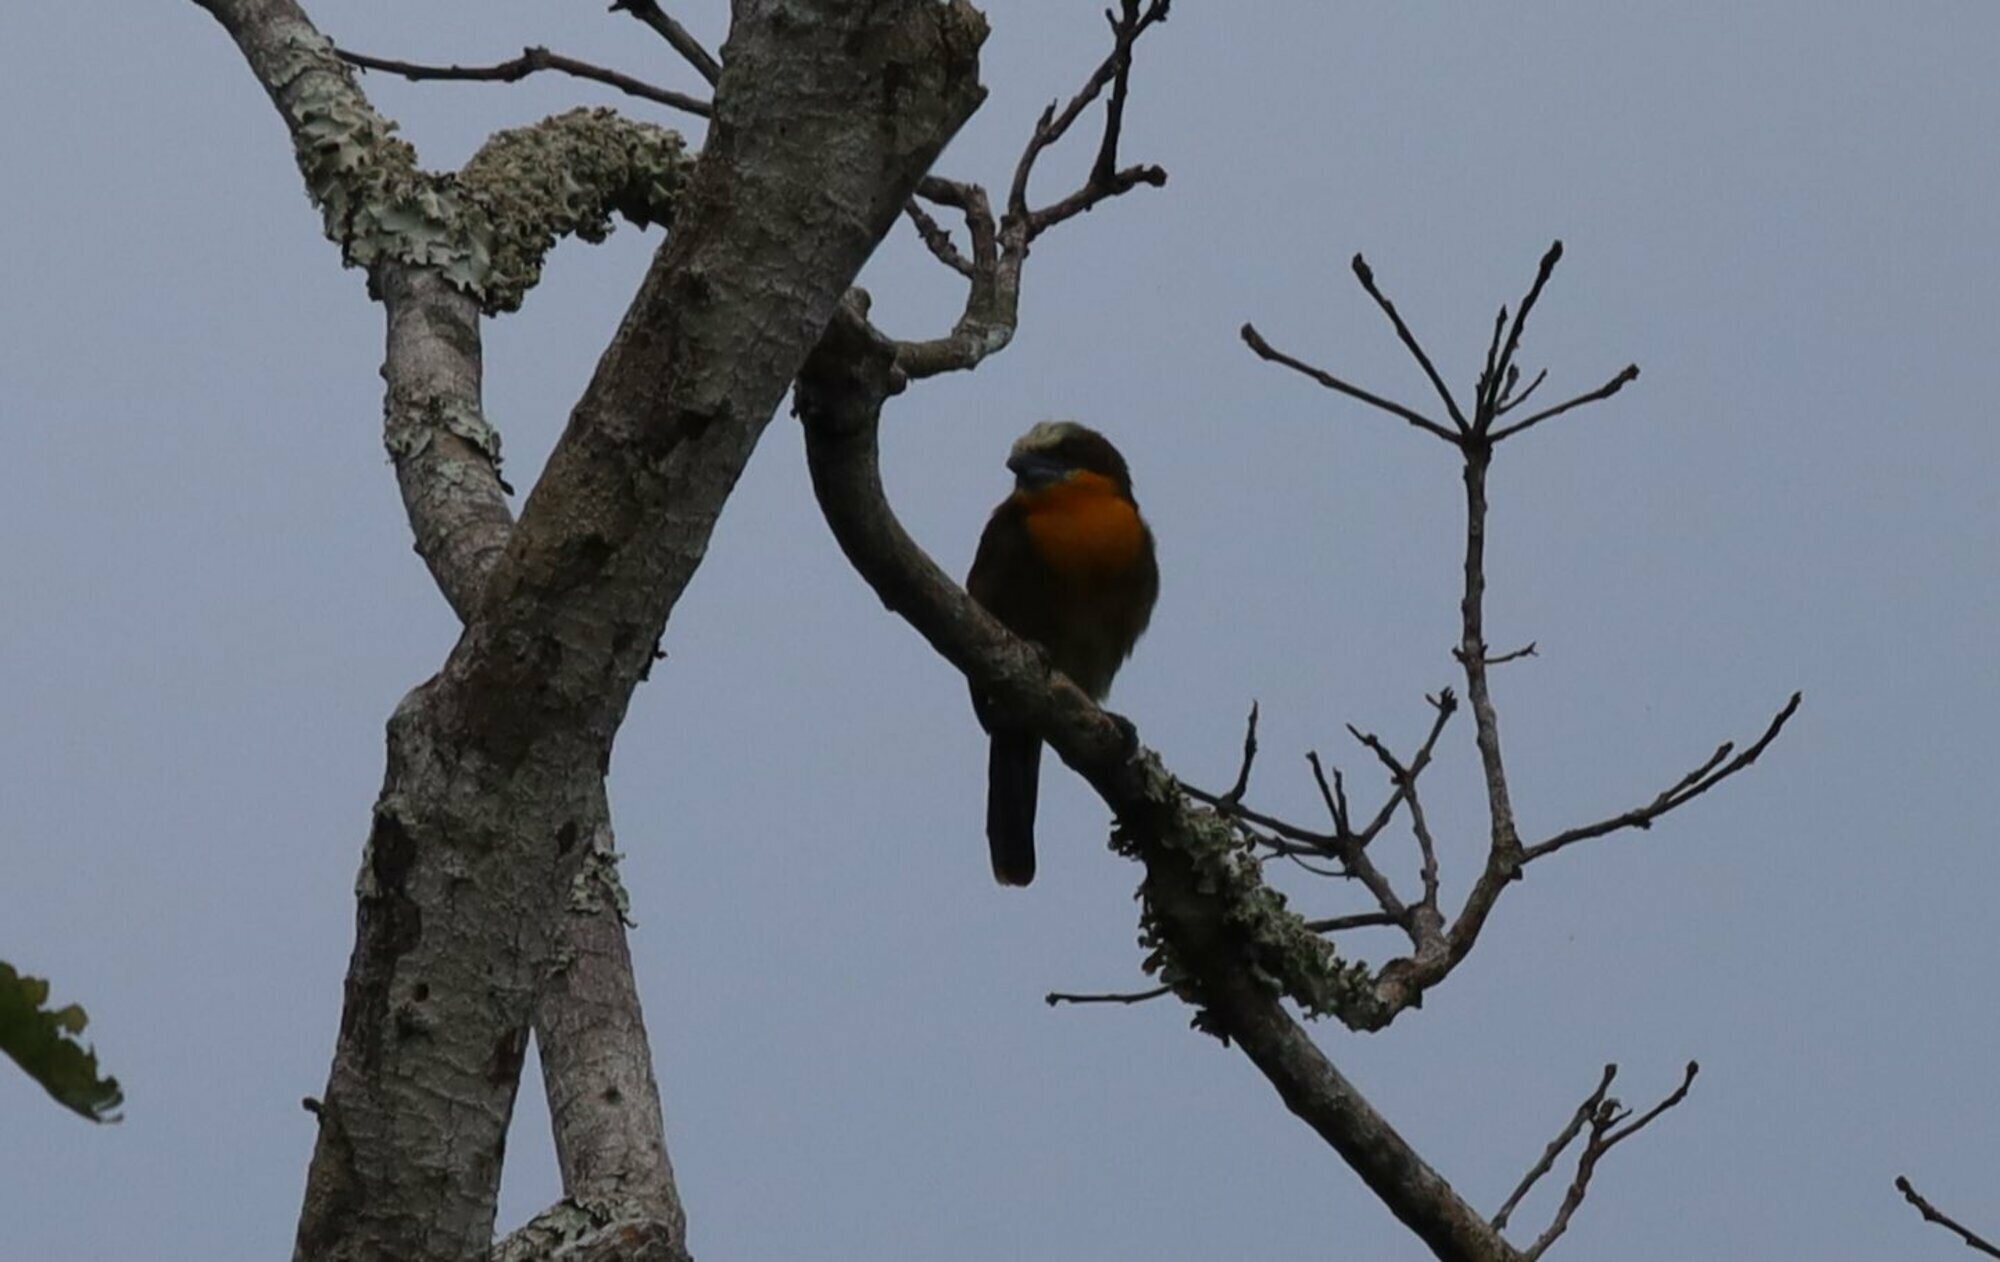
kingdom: Animalia
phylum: Chordata
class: Aves
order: Piciformes
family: Capitonidae
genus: Capito
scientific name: Capito aurovirens
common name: Scarlet-crowned barbet
